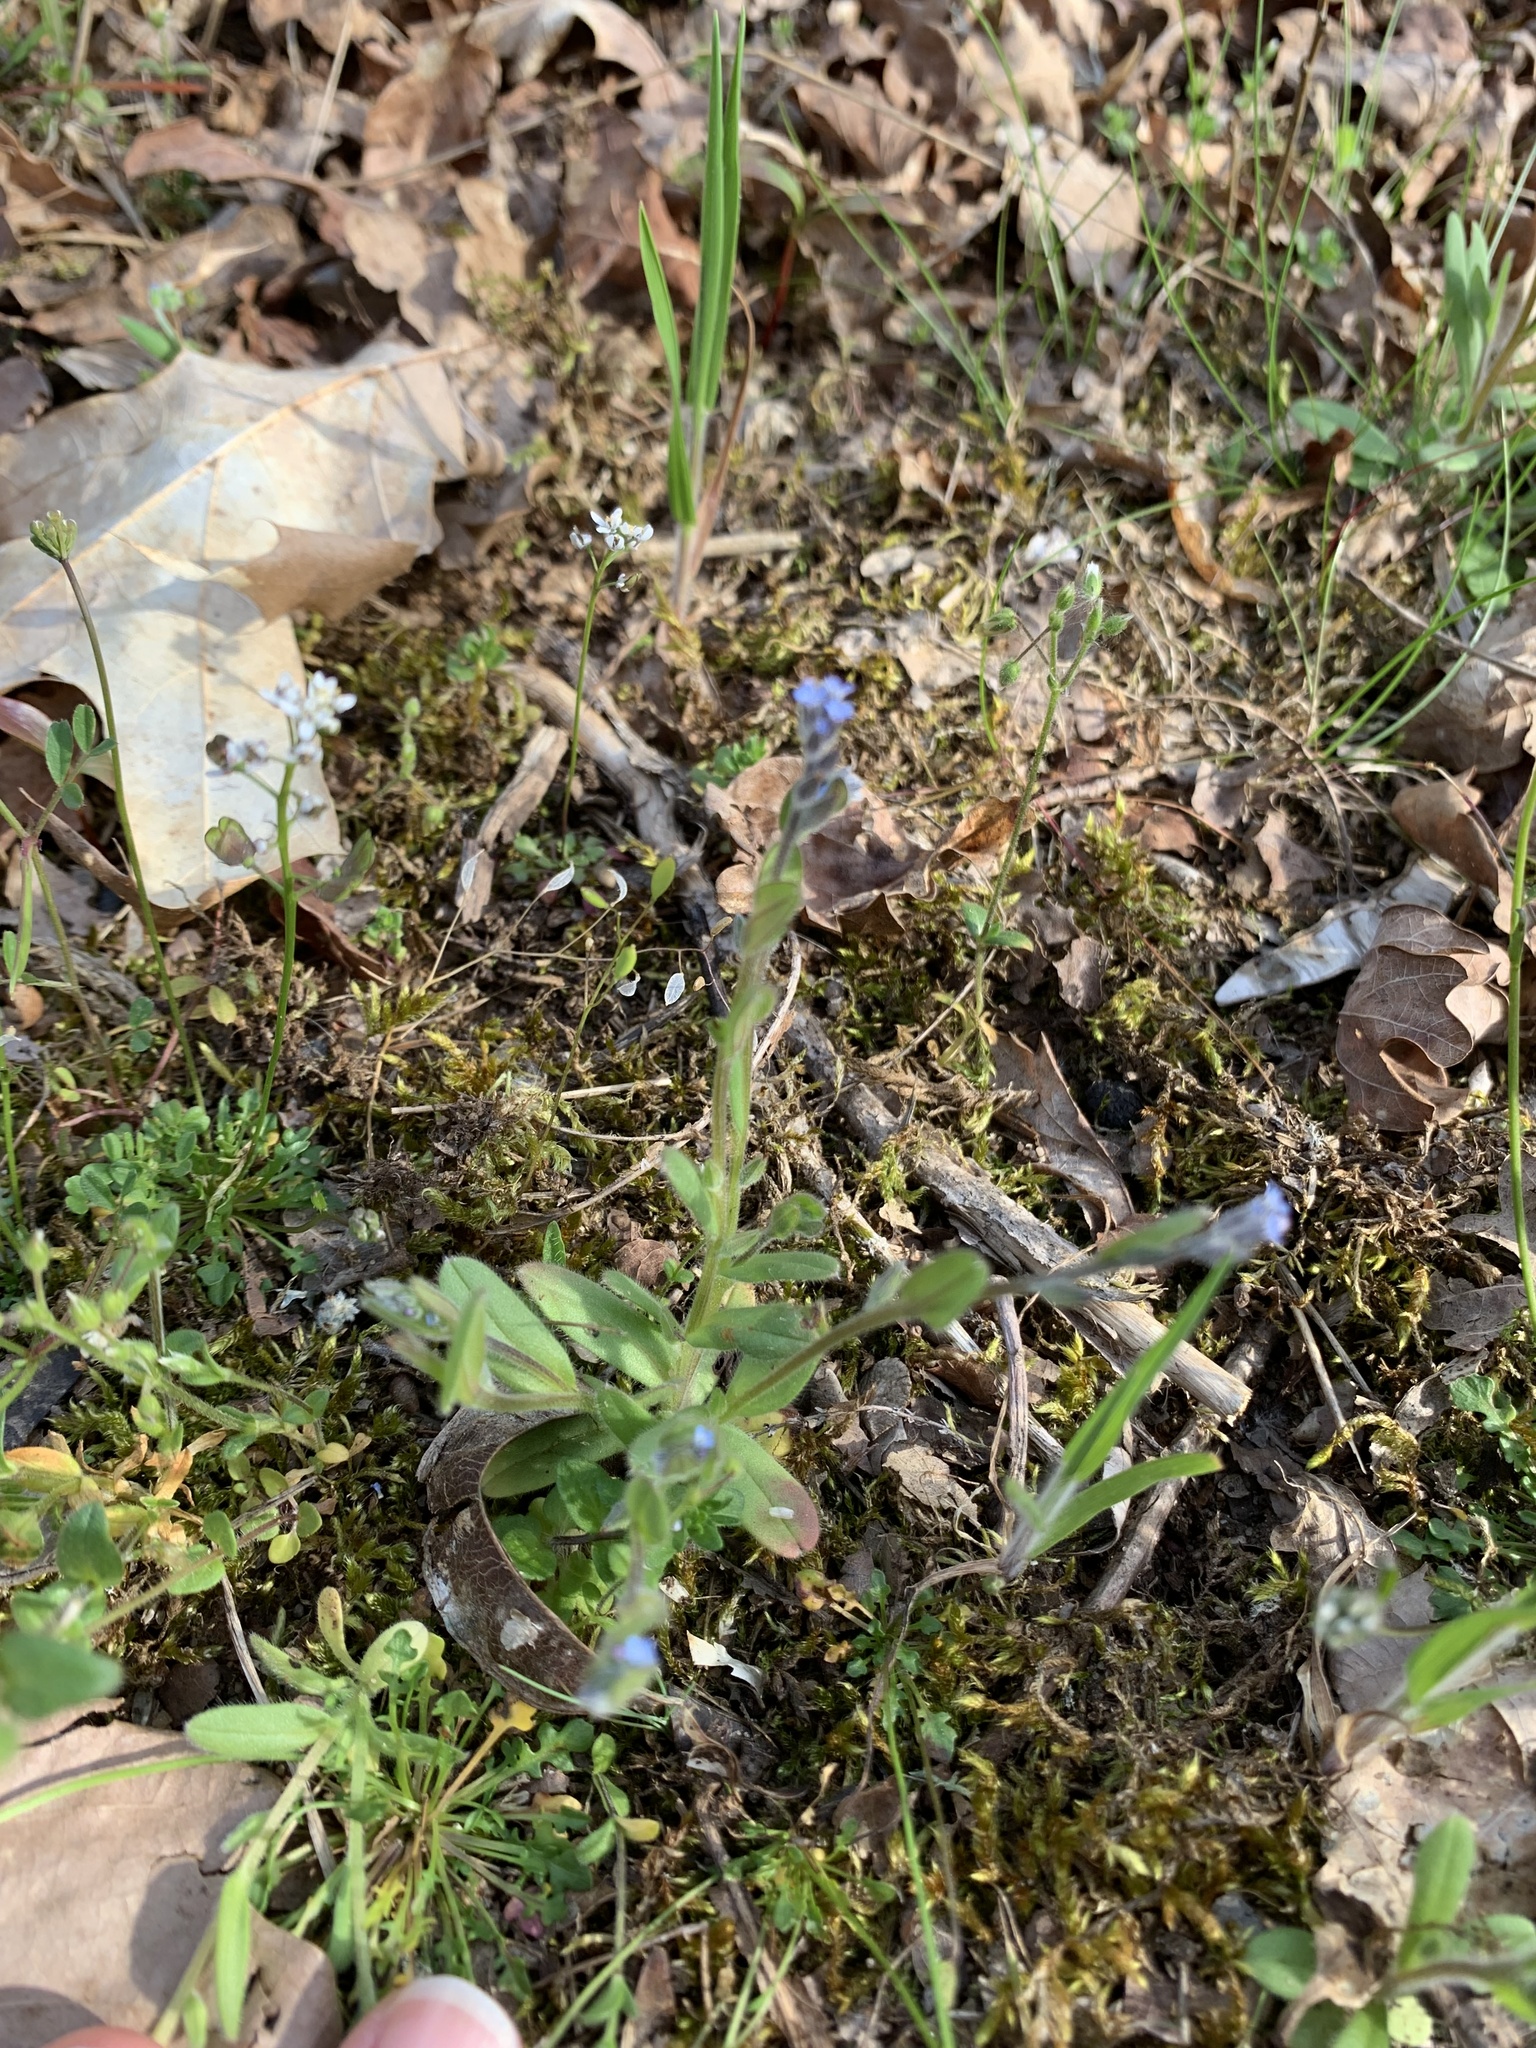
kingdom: Plantae
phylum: Tracheophyta
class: Magnoliopsida
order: Boraginales
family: Boraginaceae
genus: Myosotis
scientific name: Myosotis stricta
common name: Strict forget-me-not
